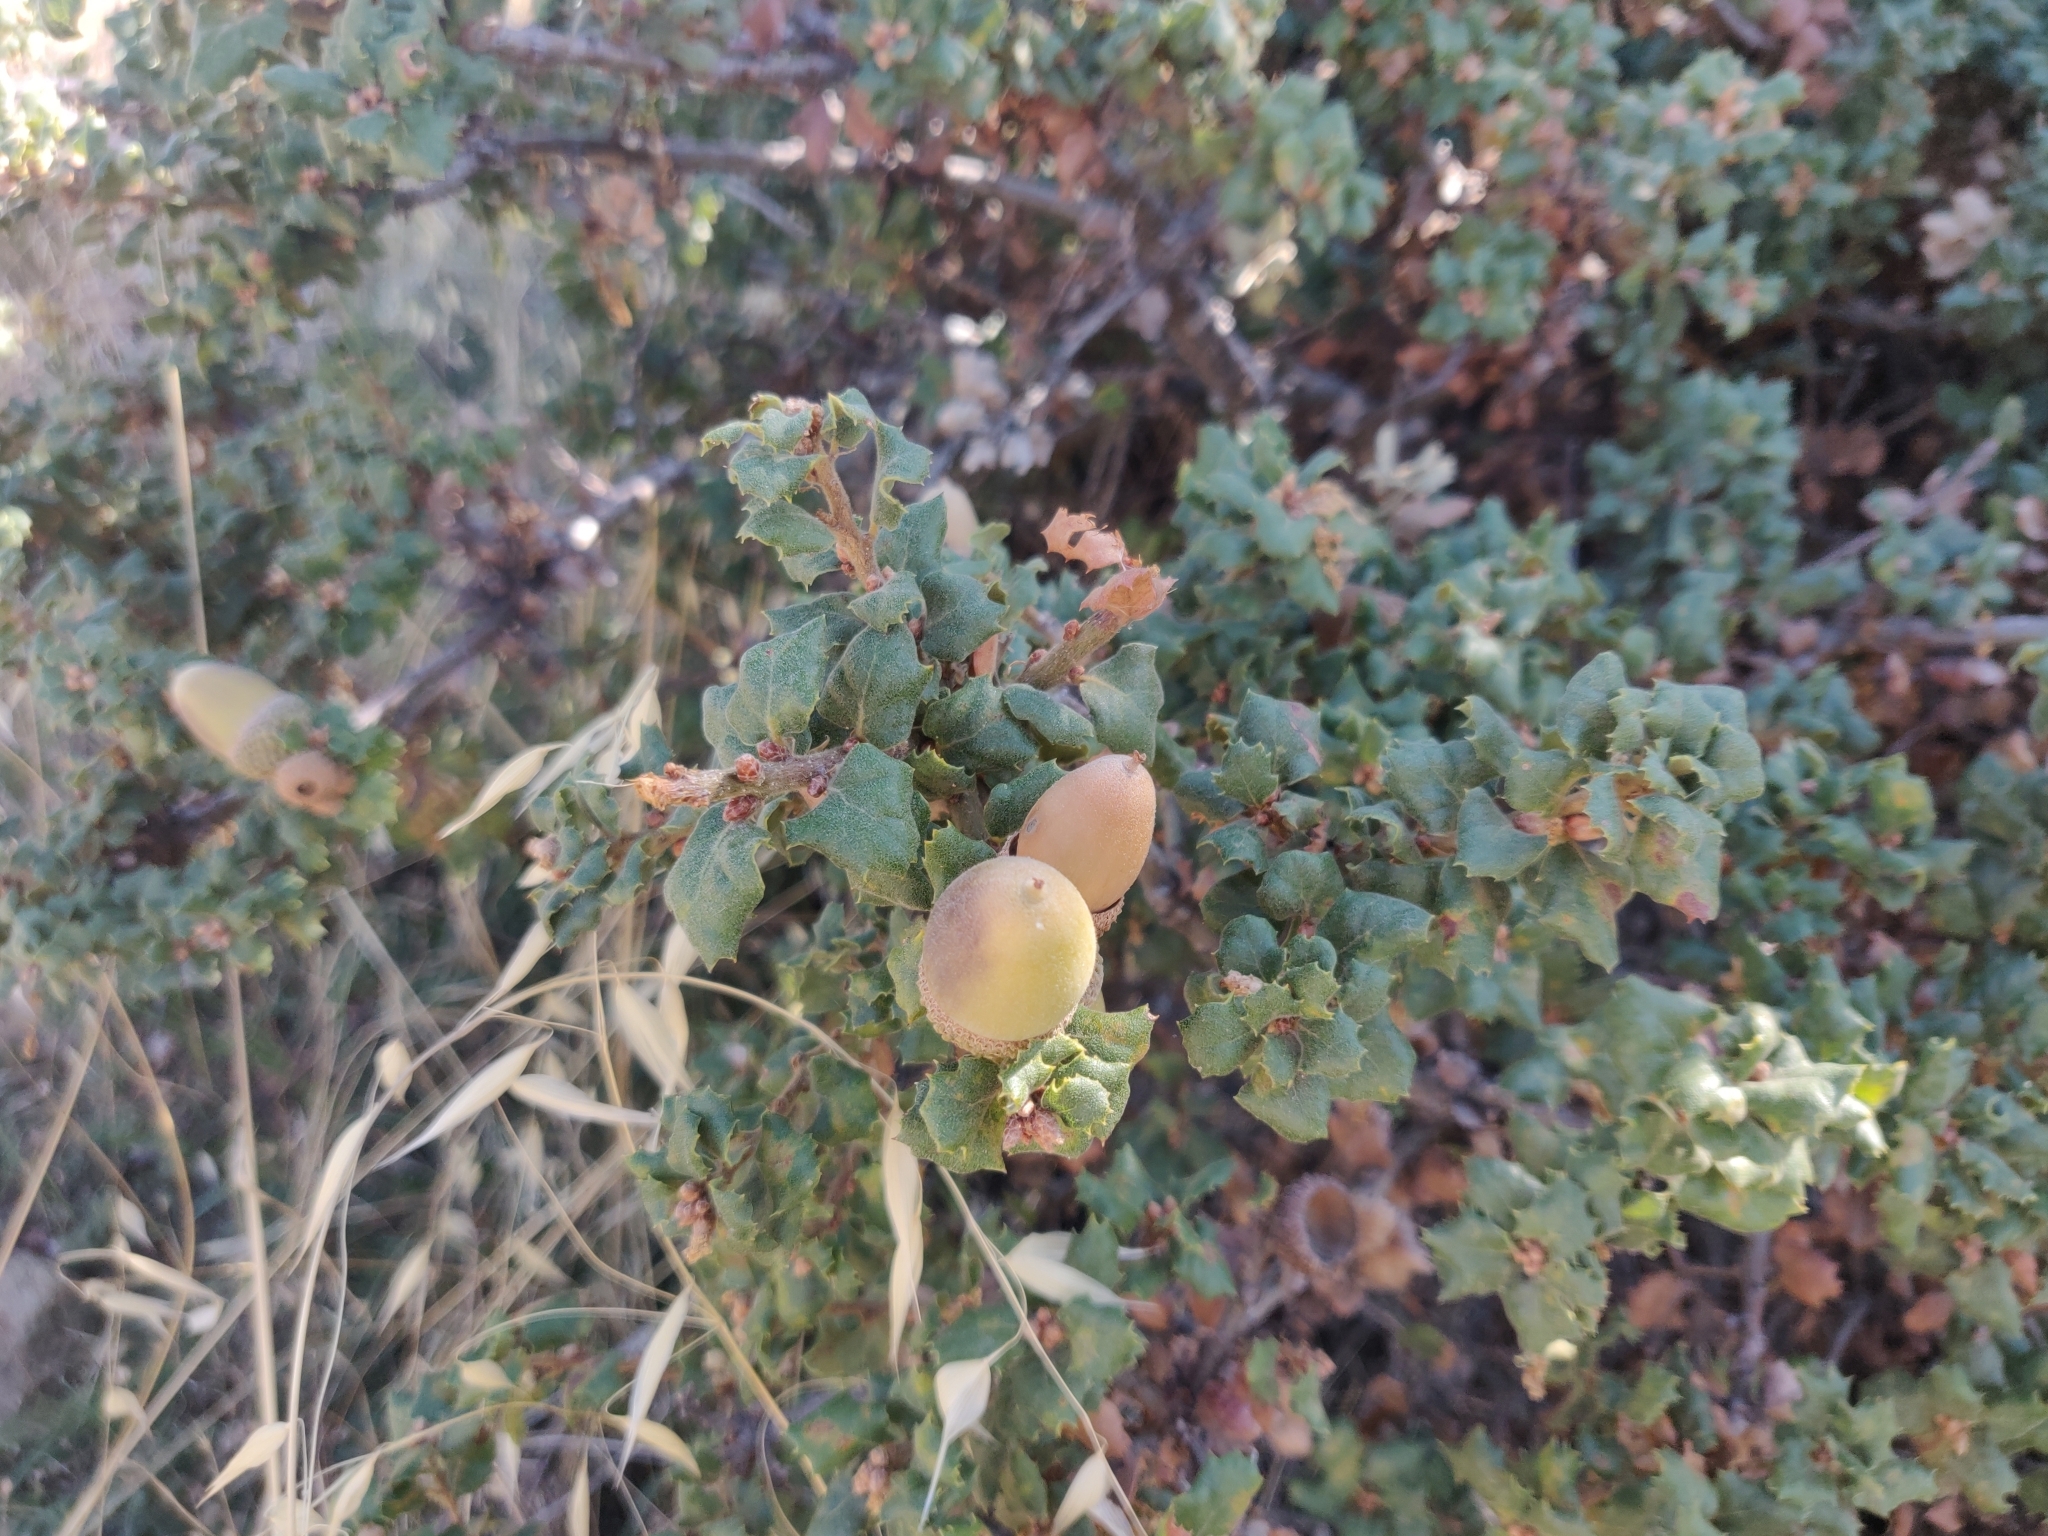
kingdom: Plantae
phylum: Tracheophyta
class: Magnoliopsida
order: Fagales
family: Fagaceae
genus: Quercus
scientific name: Quercus durata
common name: Leather oak
